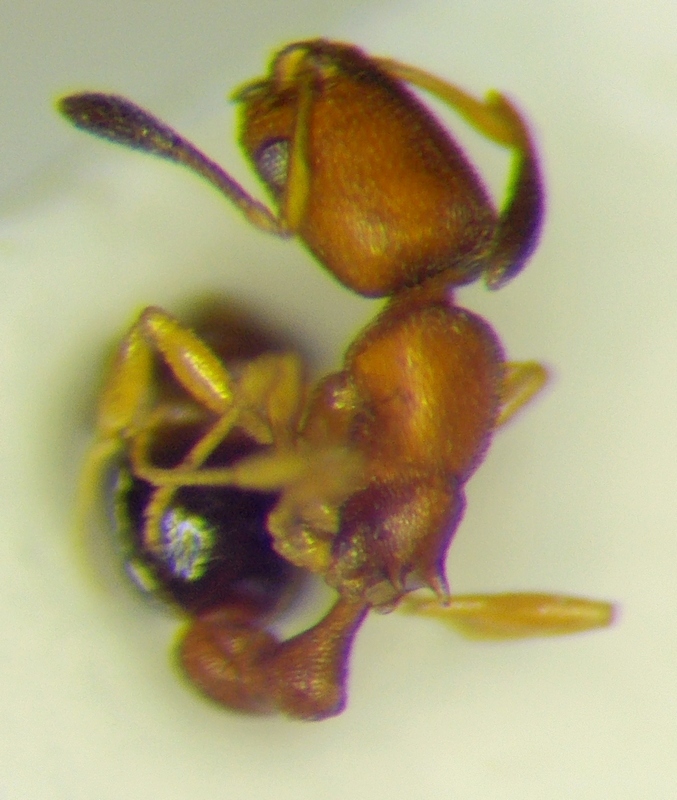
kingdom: Animalia
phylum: Arthropoda
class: Insecta
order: Hymenoptera
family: Formicidae
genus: Cardiocondyla
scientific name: Cardiocondyla emeryi
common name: Ant
